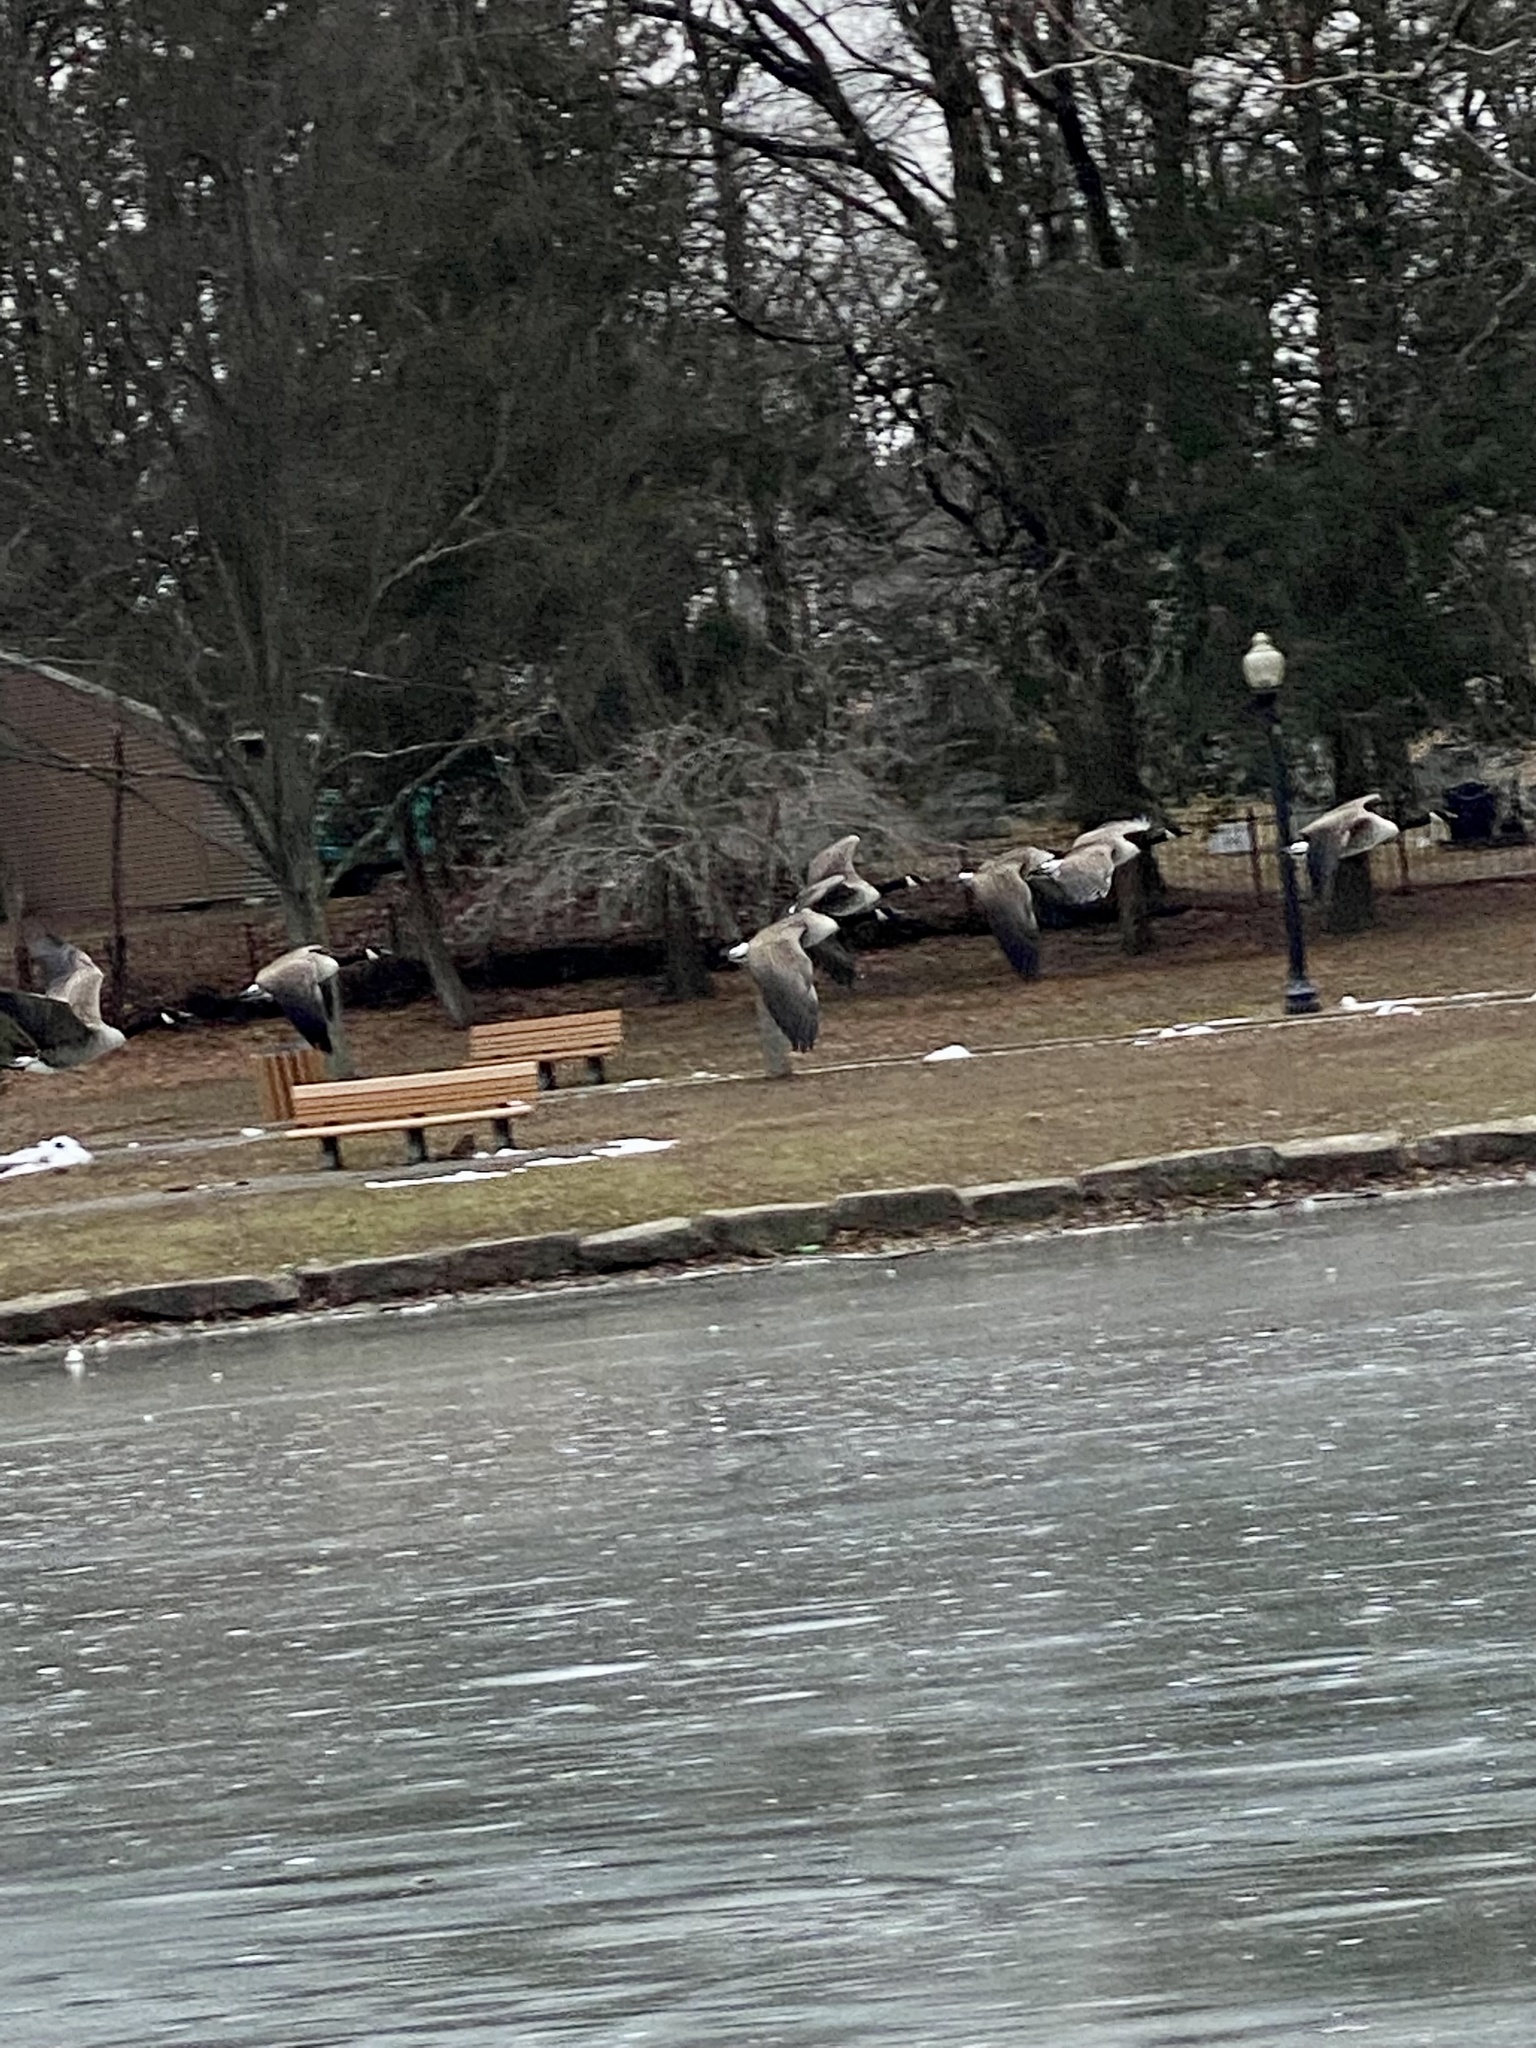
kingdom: Animalia
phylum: Chordata
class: Aves
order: Anseriformes
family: Anatidae
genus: Branta
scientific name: Branta canadensis
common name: Canada goose
